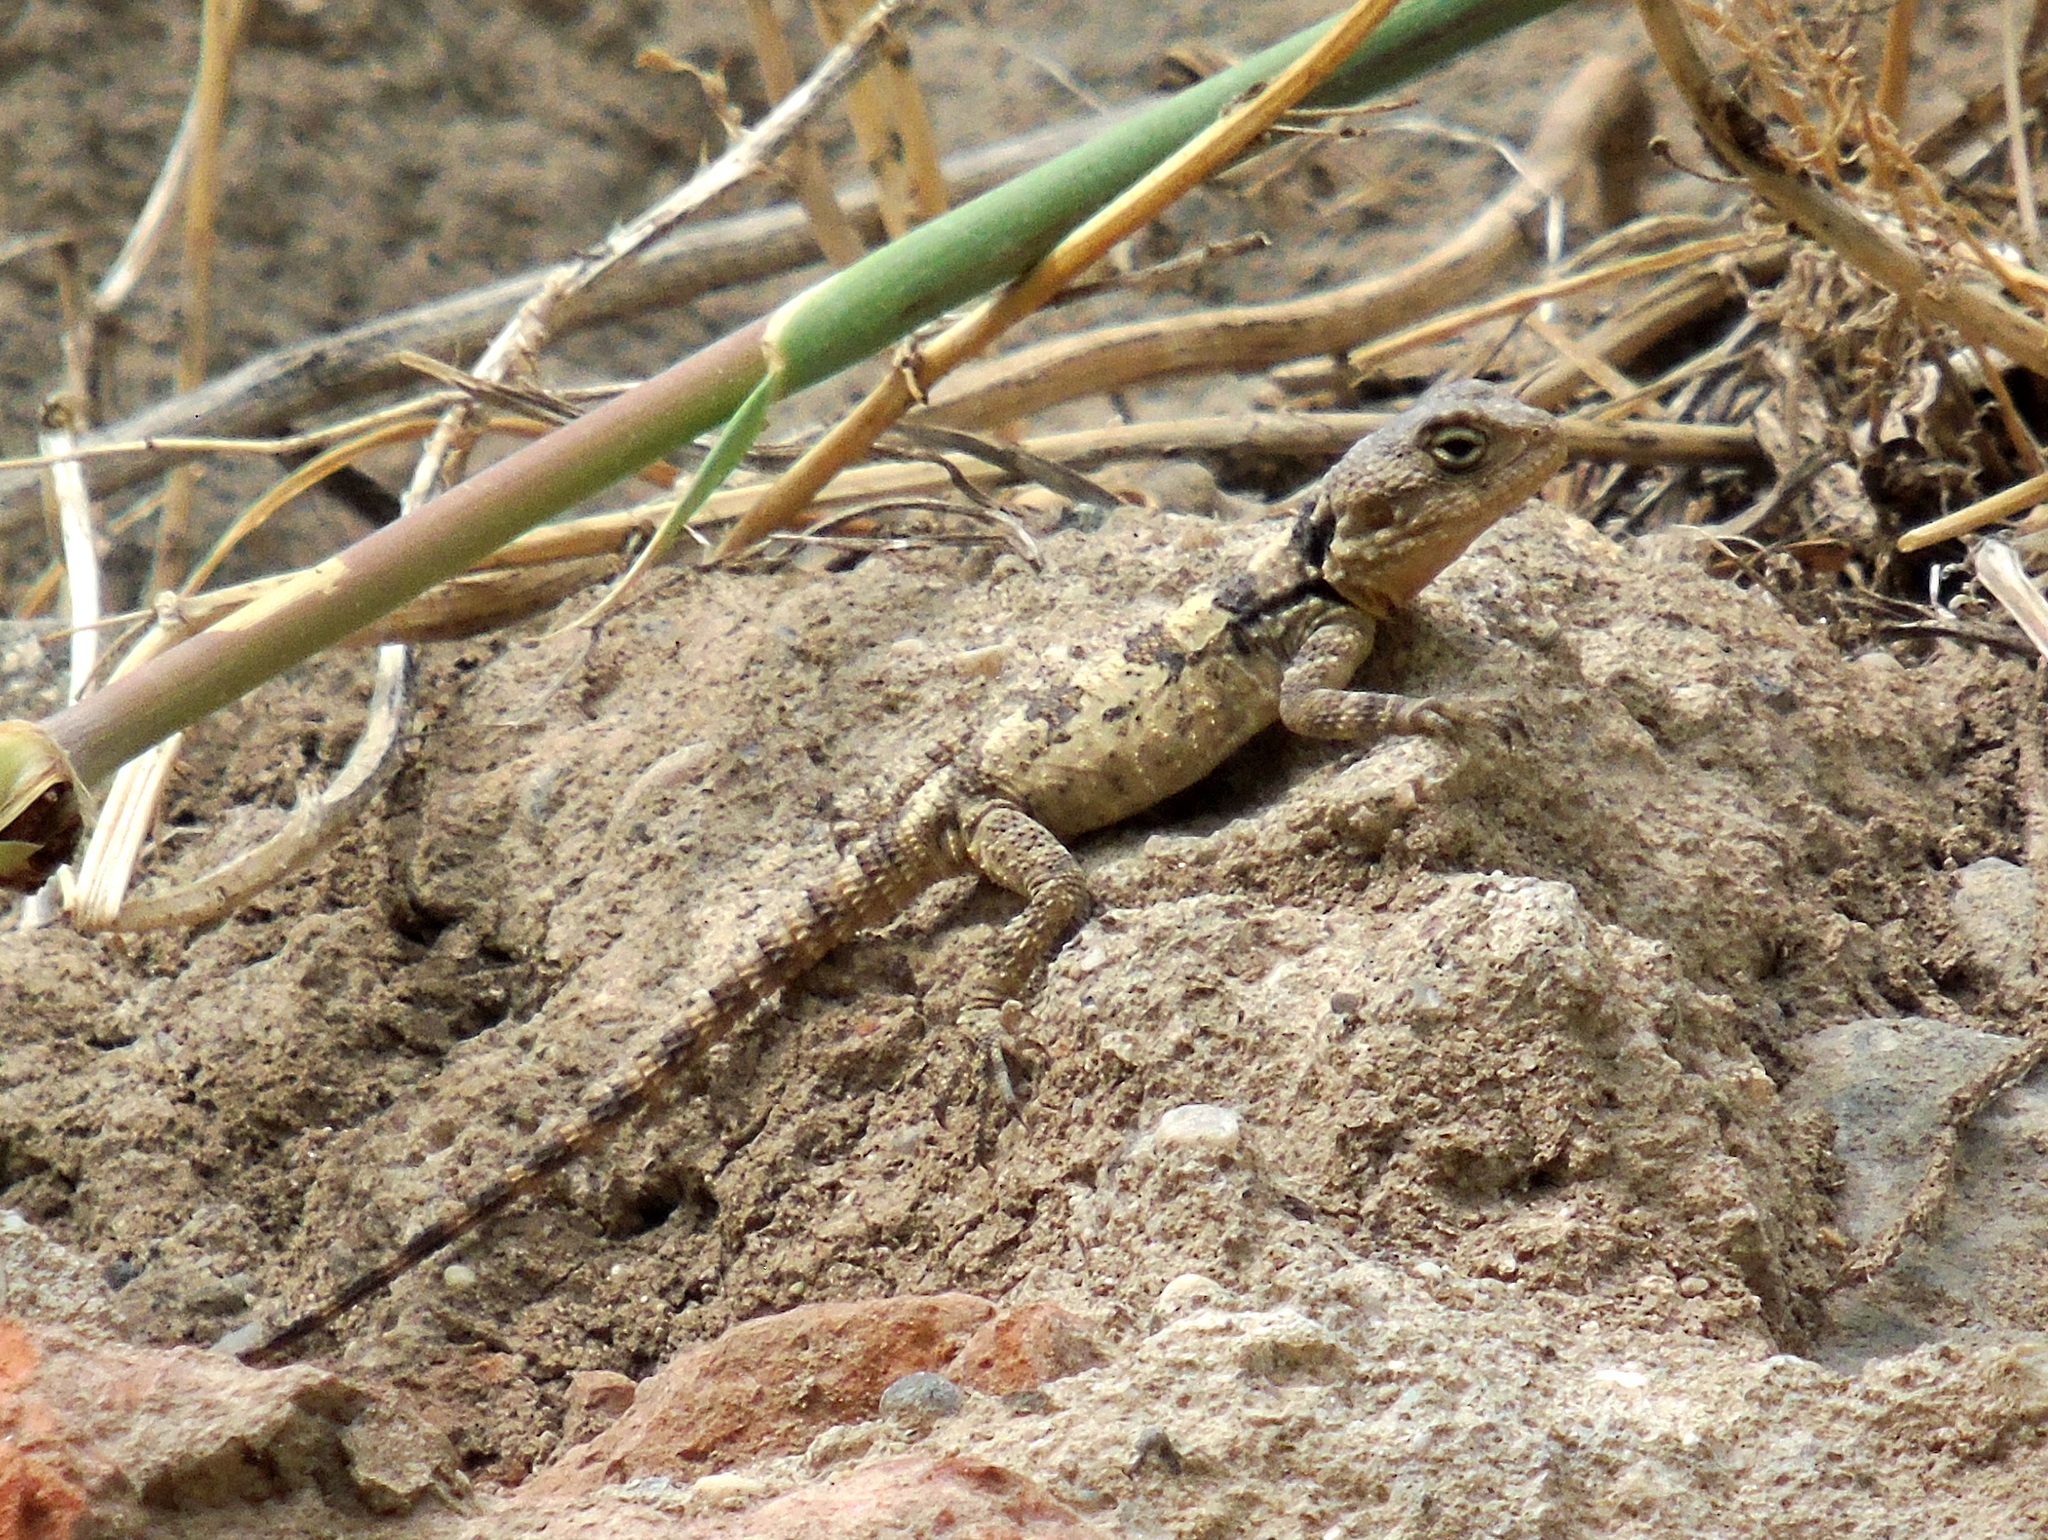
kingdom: Animalia
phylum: Chordata
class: Squamata
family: Agamidae
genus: Stellagama
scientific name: Stellagama stellio
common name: Starred agama
